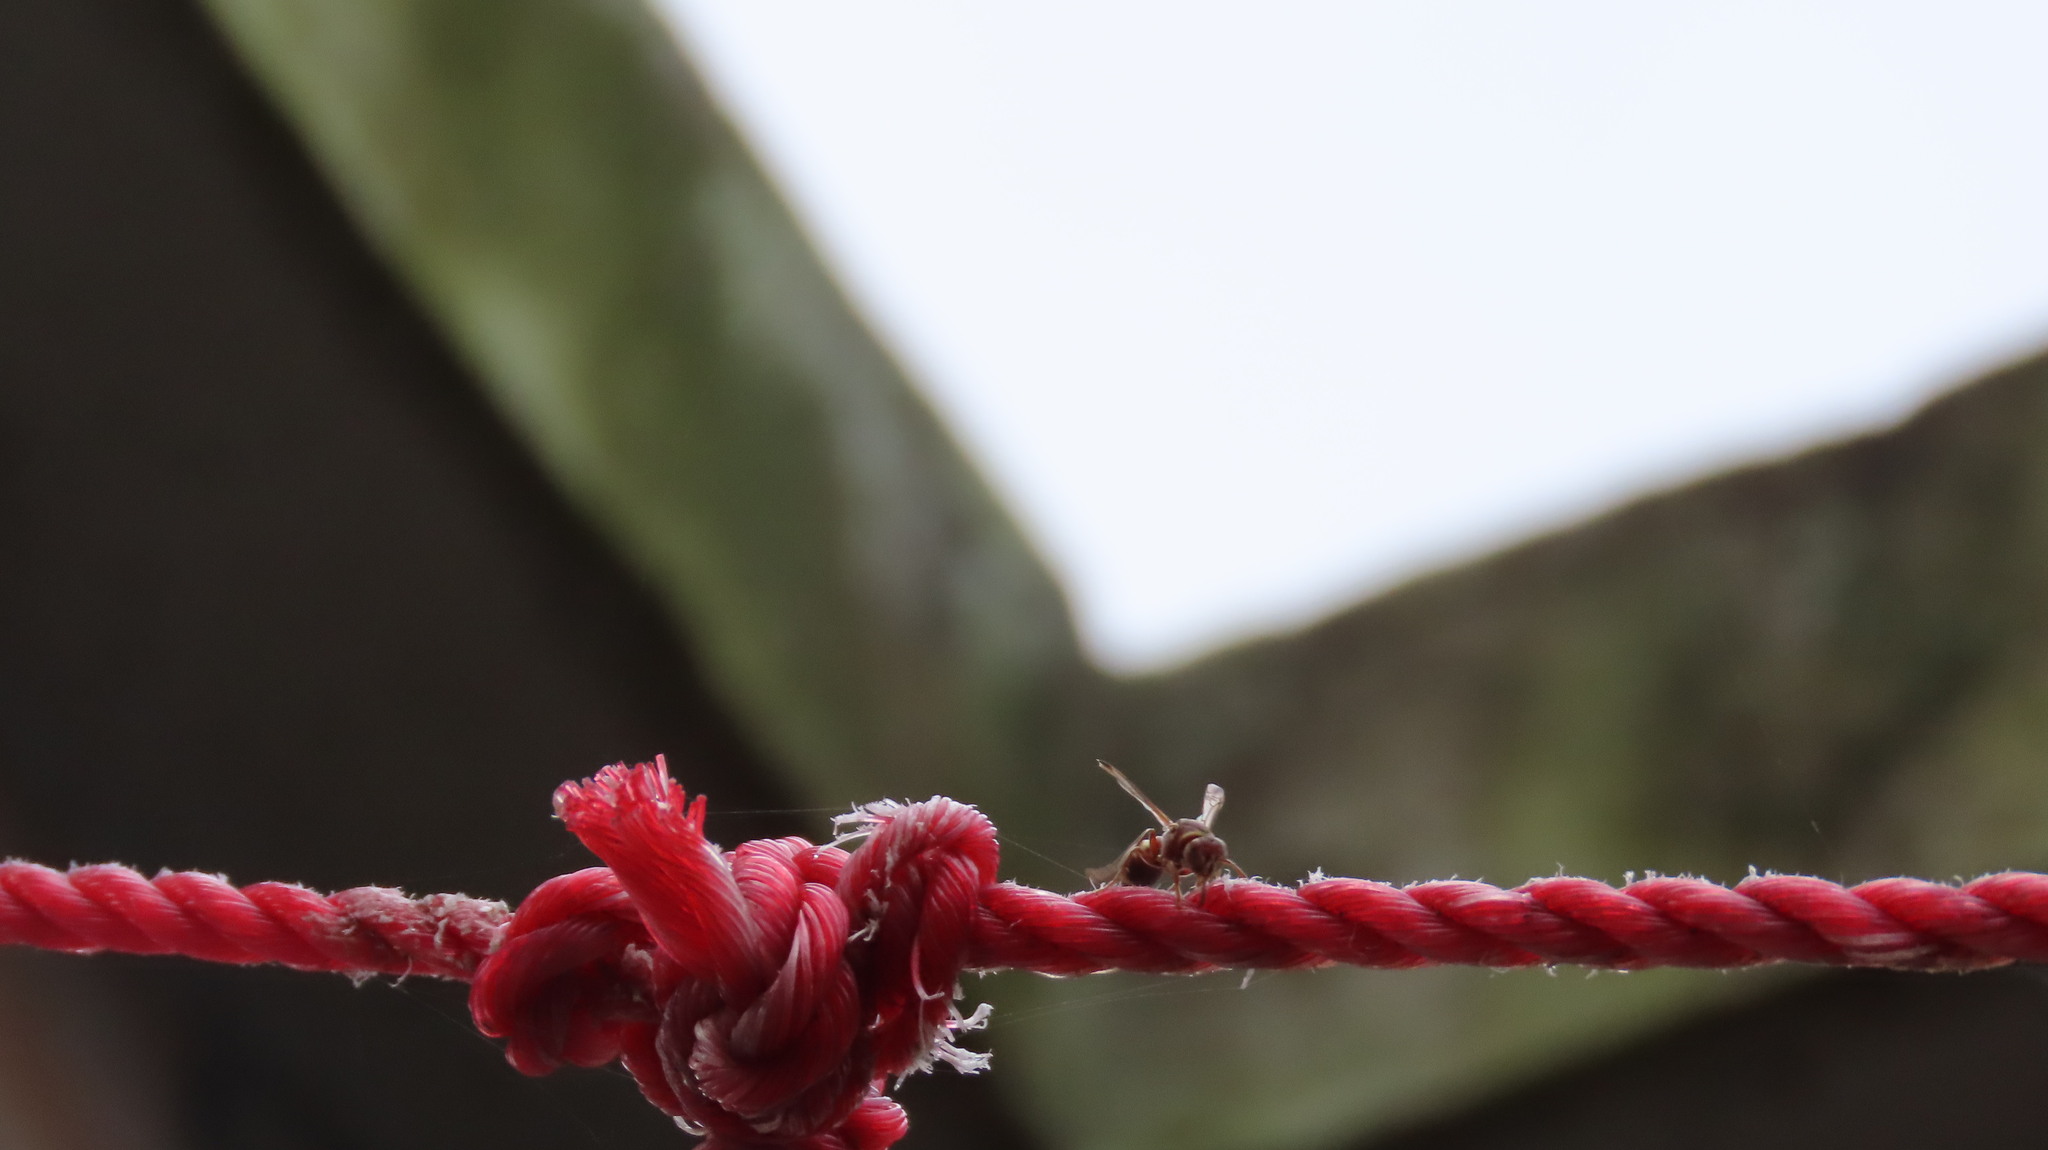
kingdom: Animalia
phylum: Arthropoda
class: Insecta
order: Hymenoptera
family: Vespidae
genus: Ropalidia
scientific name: Ropalidia
